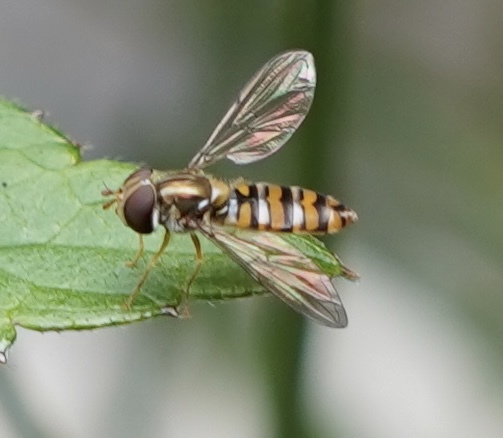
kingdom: Animalia
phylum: Arthropoda
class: Insecta
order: Diptera
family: Syrphidae
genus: Episyrphus
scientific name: Episyrphus balteatus
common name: Marmalade hoverfly
